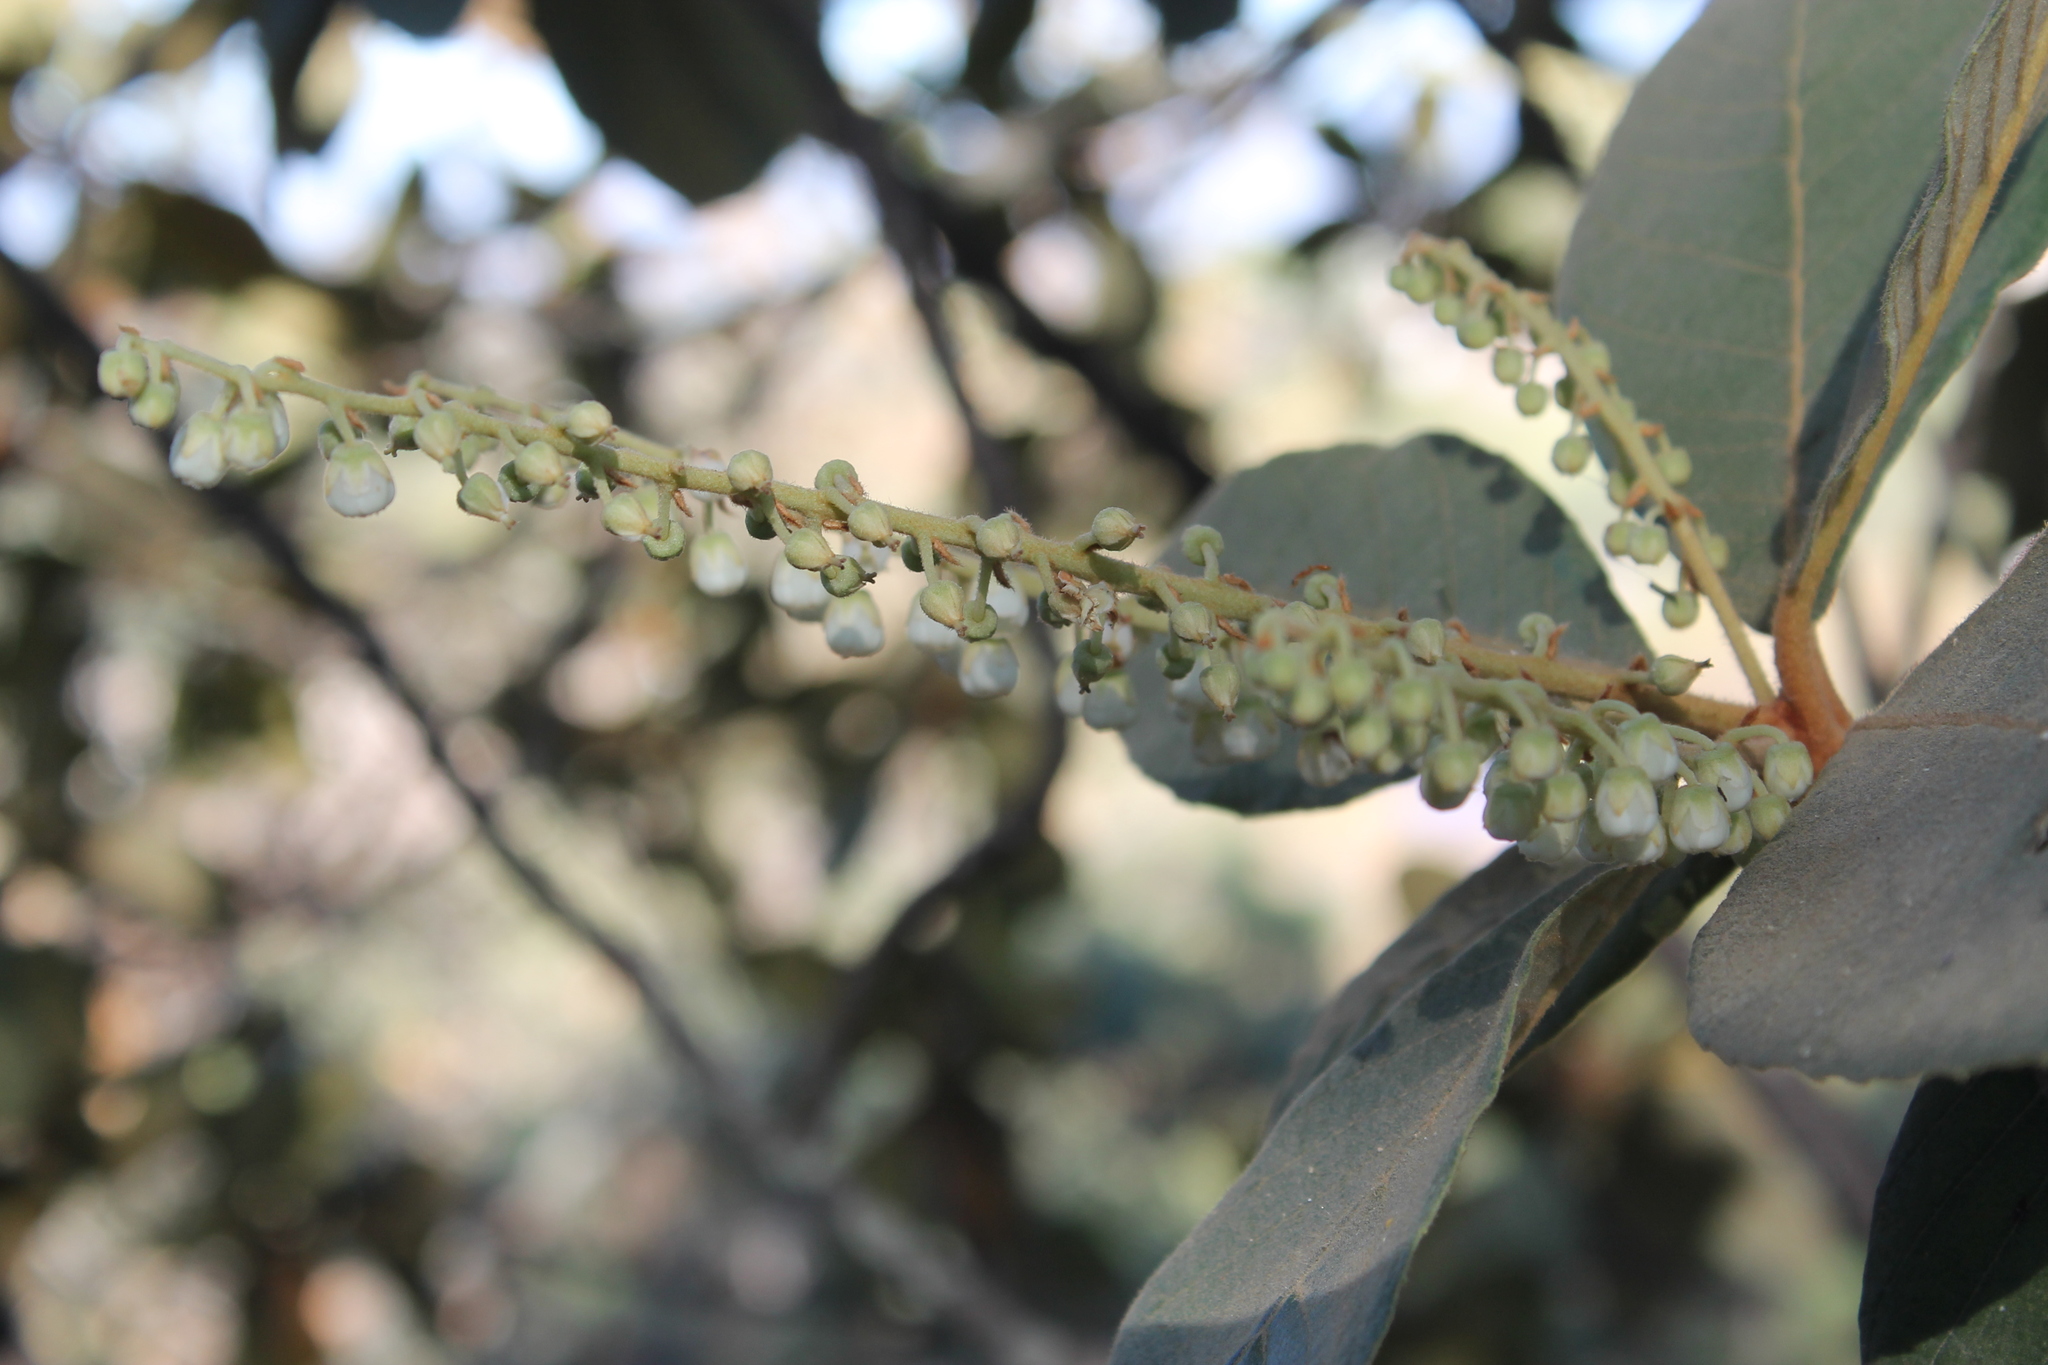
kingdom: Plantae
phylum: Tracheophyta
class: Magnoliopsida
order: Ericales
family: Clethraceae
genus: Clethra
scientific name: Clethra hartwegii
